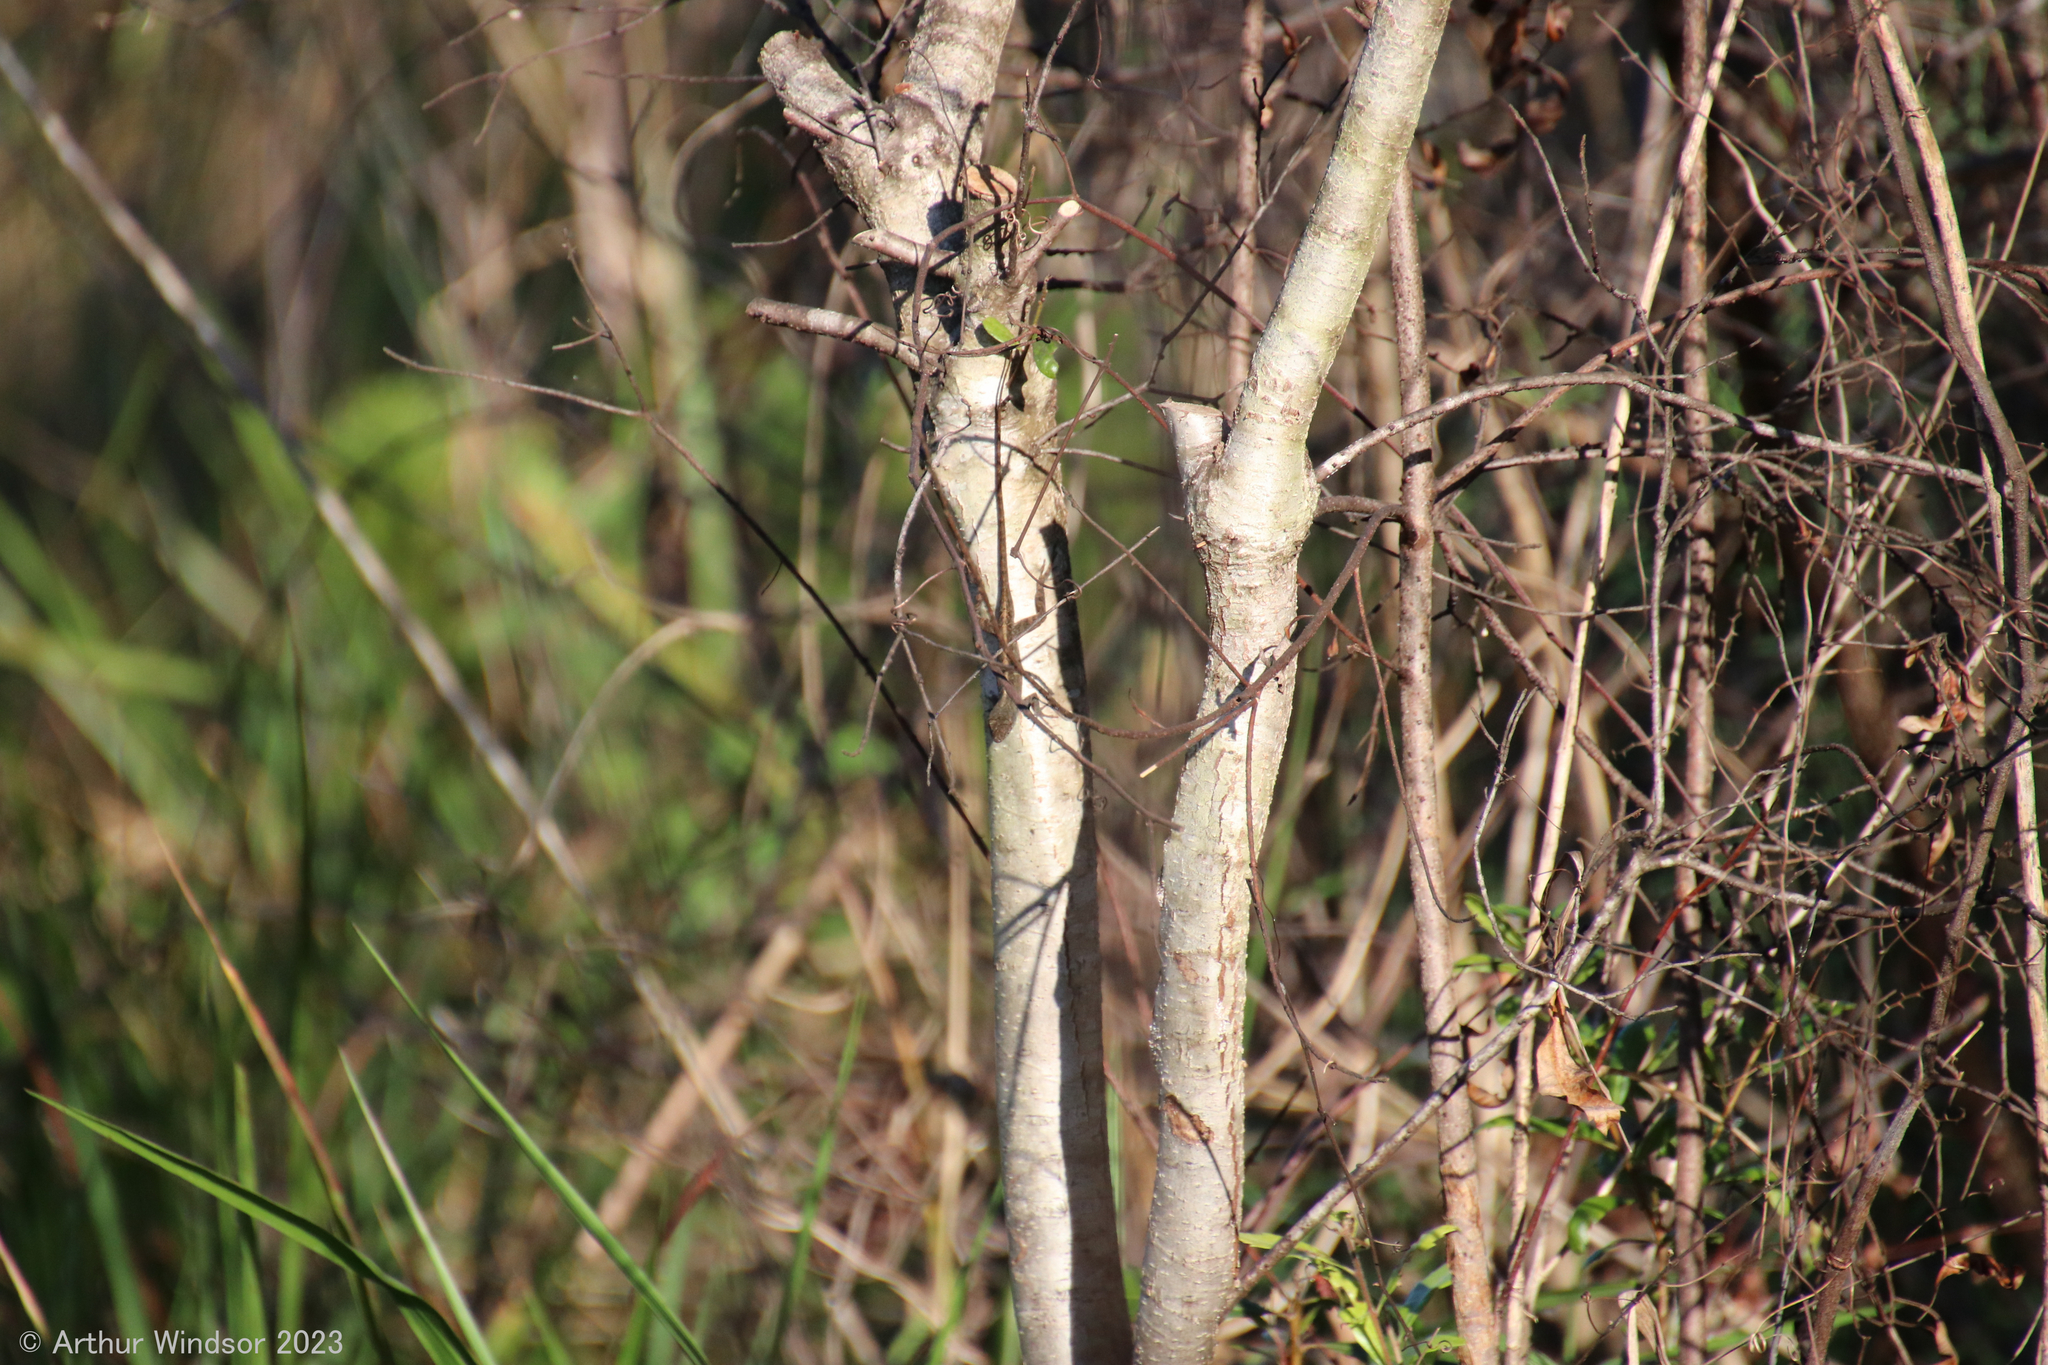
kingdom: Animalia
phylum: Chordata
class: Squamata
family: Dactyloidae
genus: Anolis
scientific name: Anolis sagrei
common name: Brown anole
